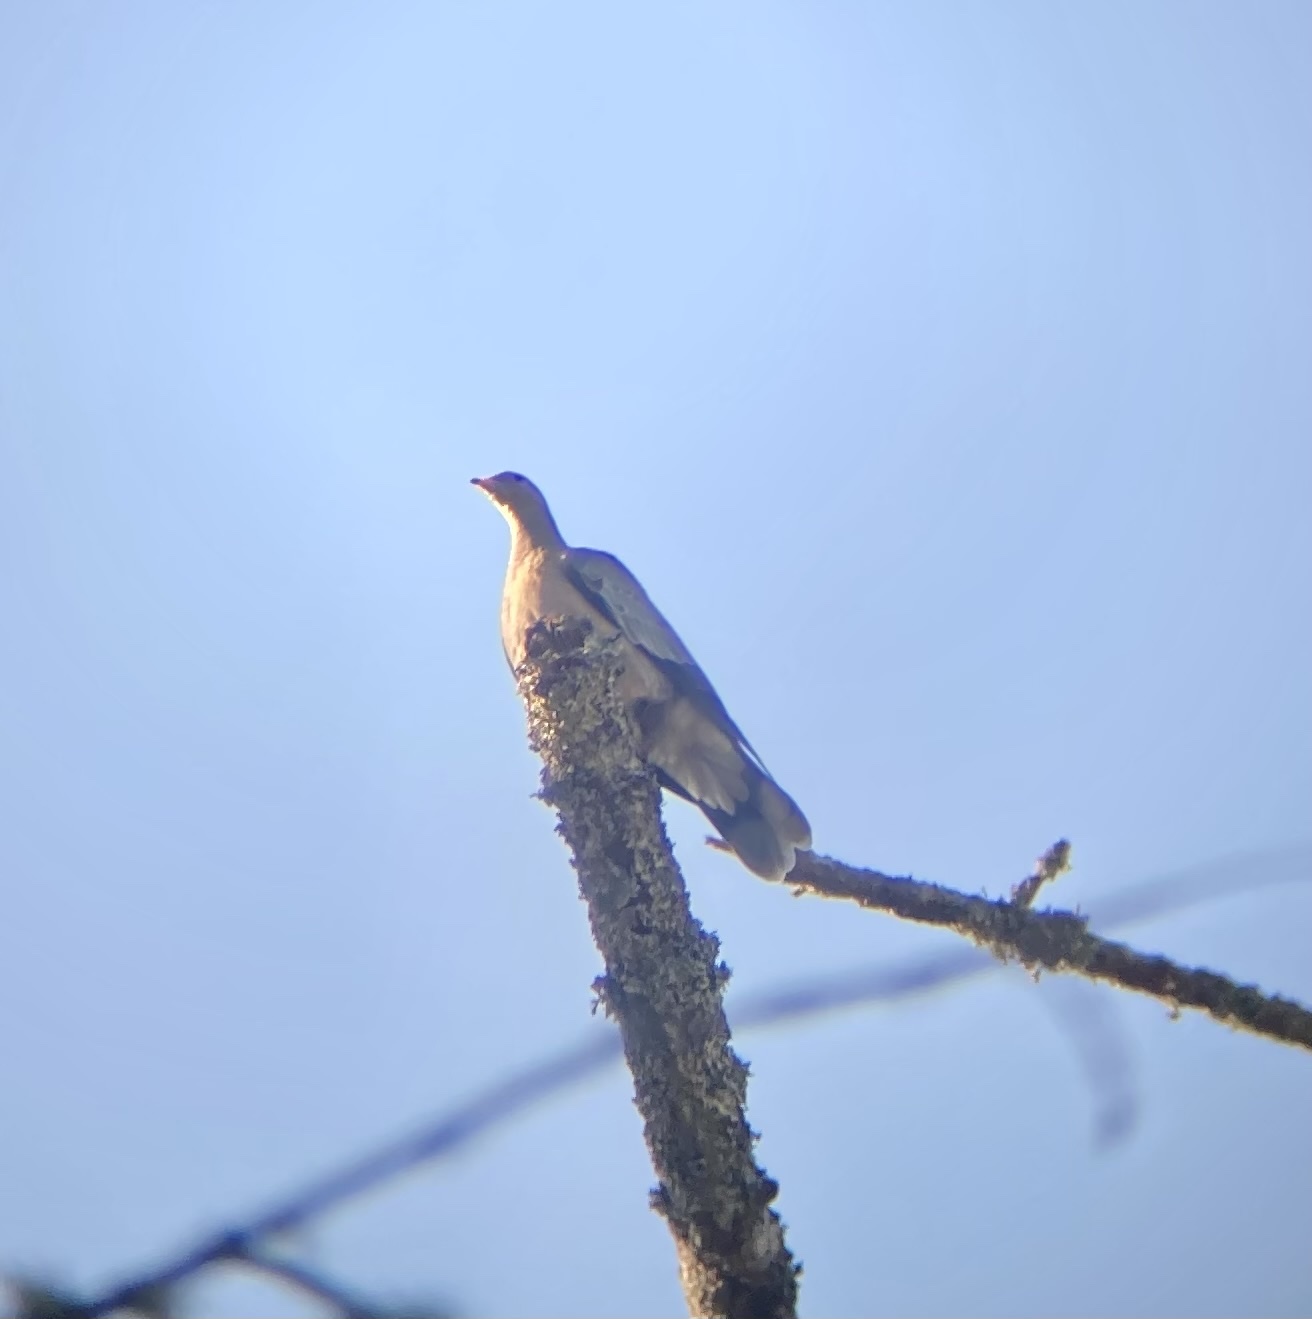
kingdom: Animalia
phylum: Chordata
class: Aves
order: Columbiformes
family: Columbidae
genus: Patagioenas
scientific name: Patagioenas fasciata
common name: Band-tailed pigeon
